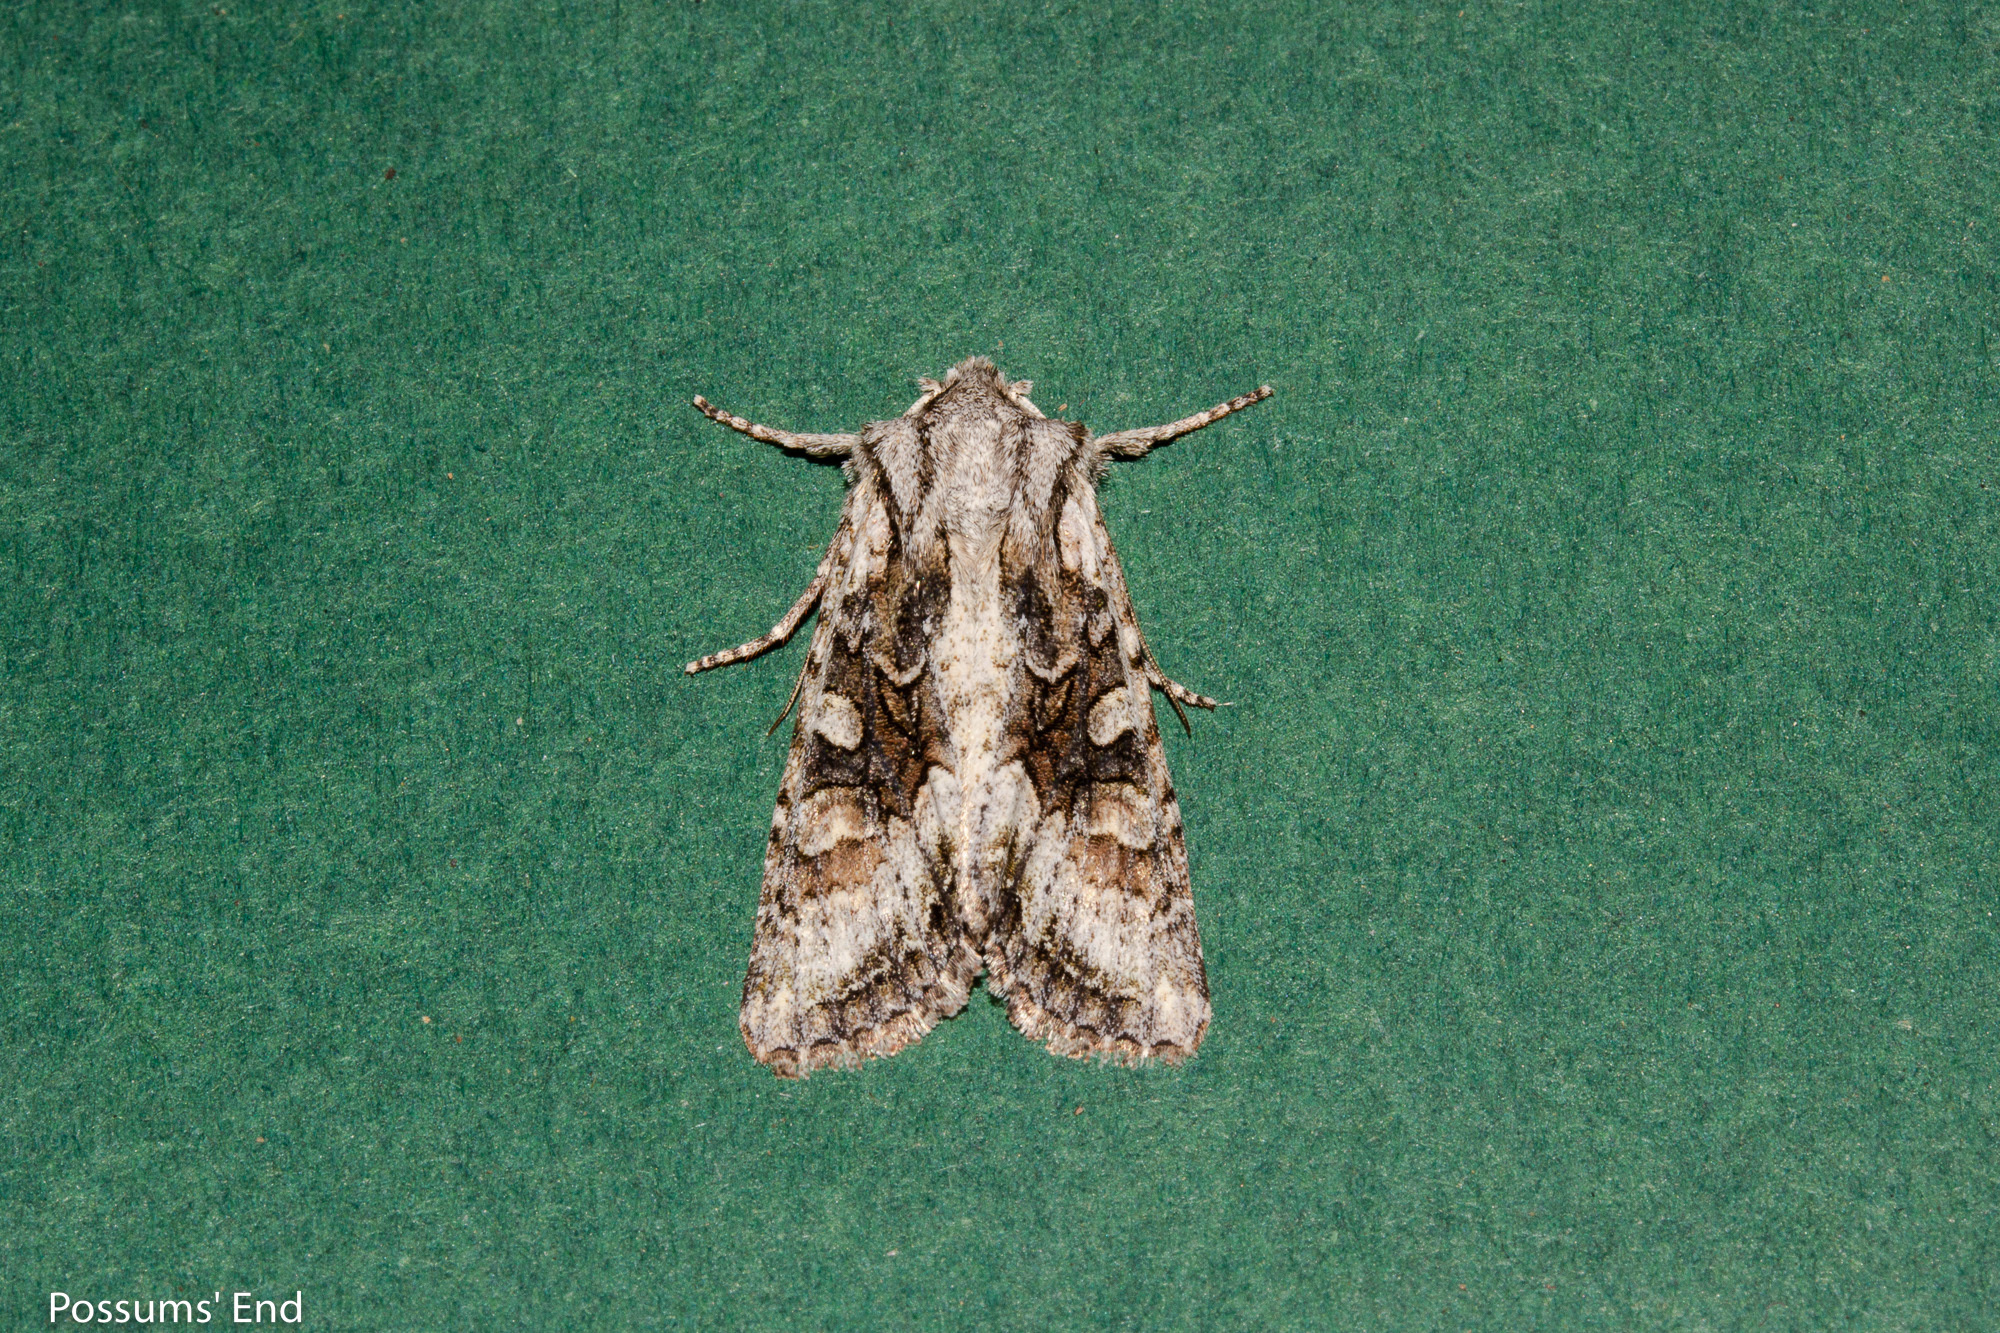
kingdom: Animalia
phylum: Arthropoda
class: Insecta
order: Lepidoptera
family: Noctuidae
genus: Ichneutica
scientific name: Ichneutica mutans
